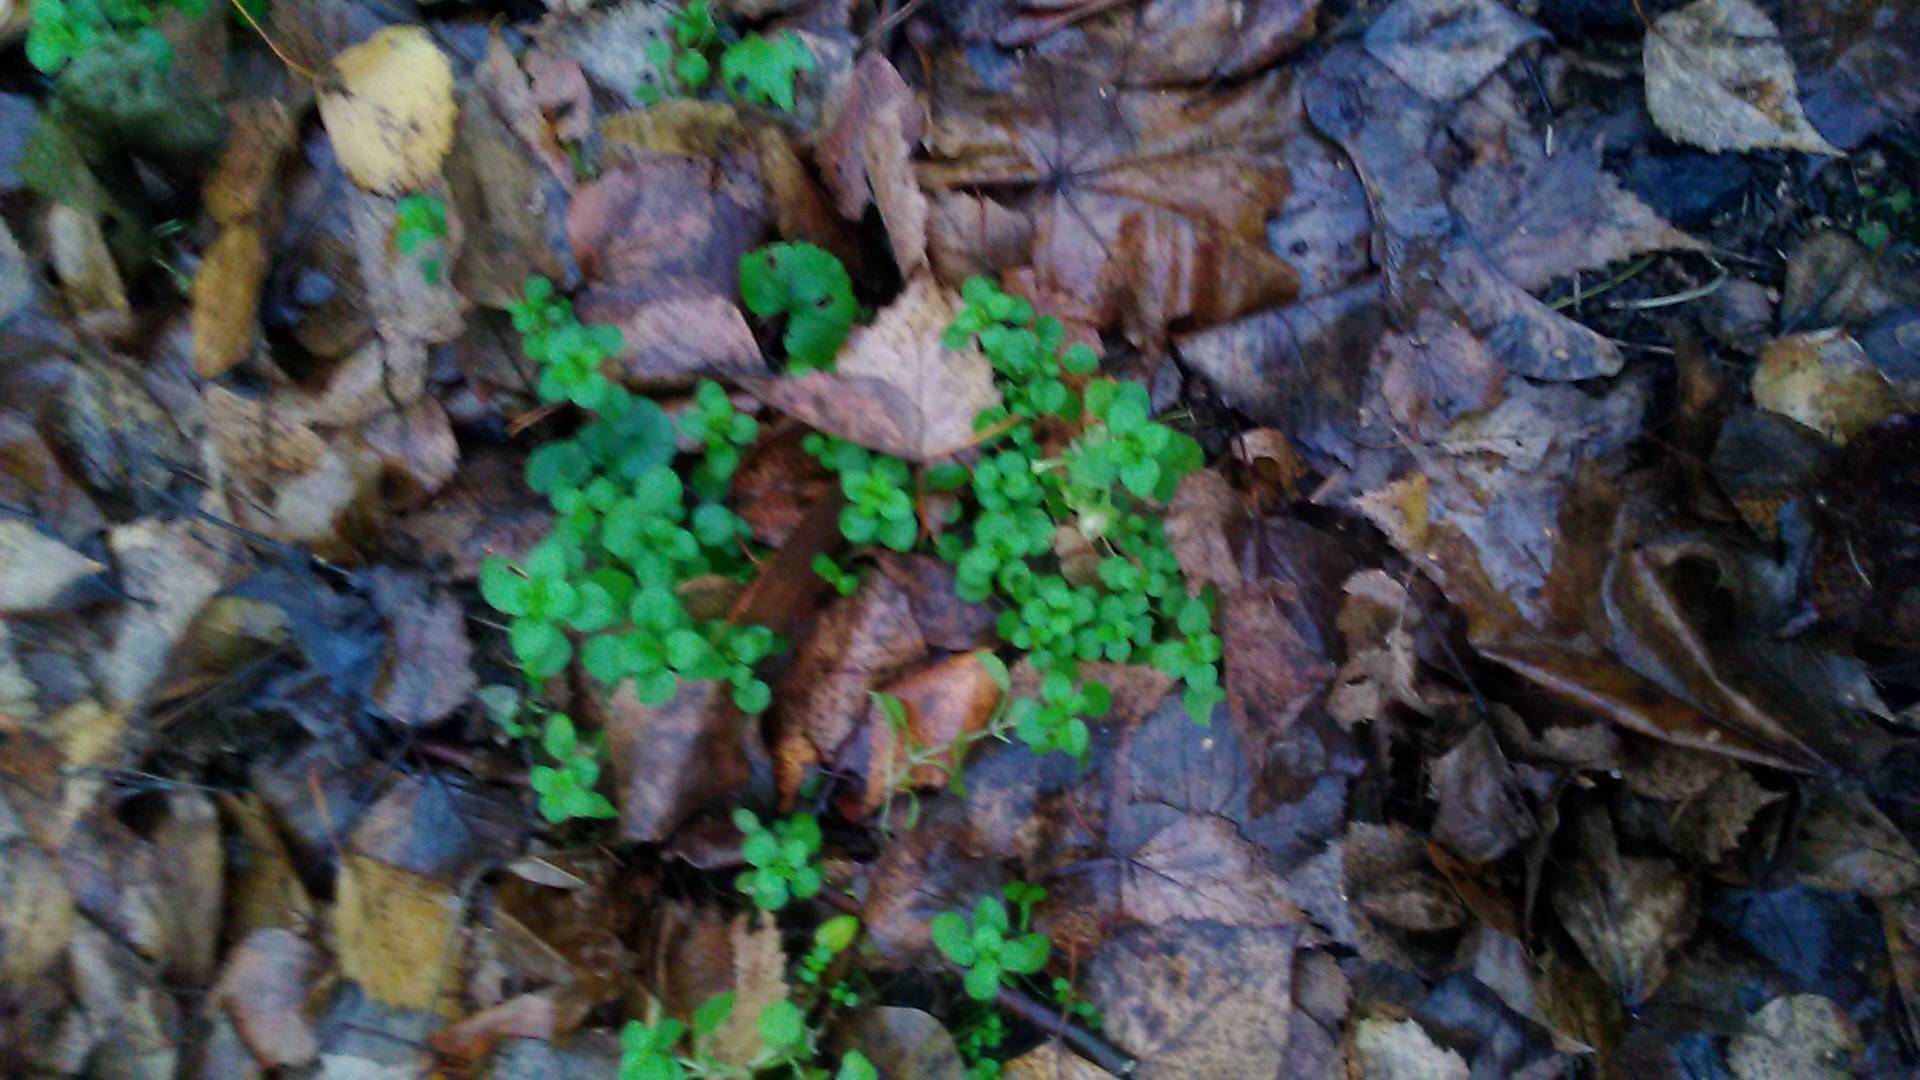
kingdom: Plantae
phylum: Tracheophyta
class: Magnoliopsida
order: Caryophyllales
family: Caryophyllaceae
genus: Stellaria
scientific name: Stellaria media
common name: Common chickweed
